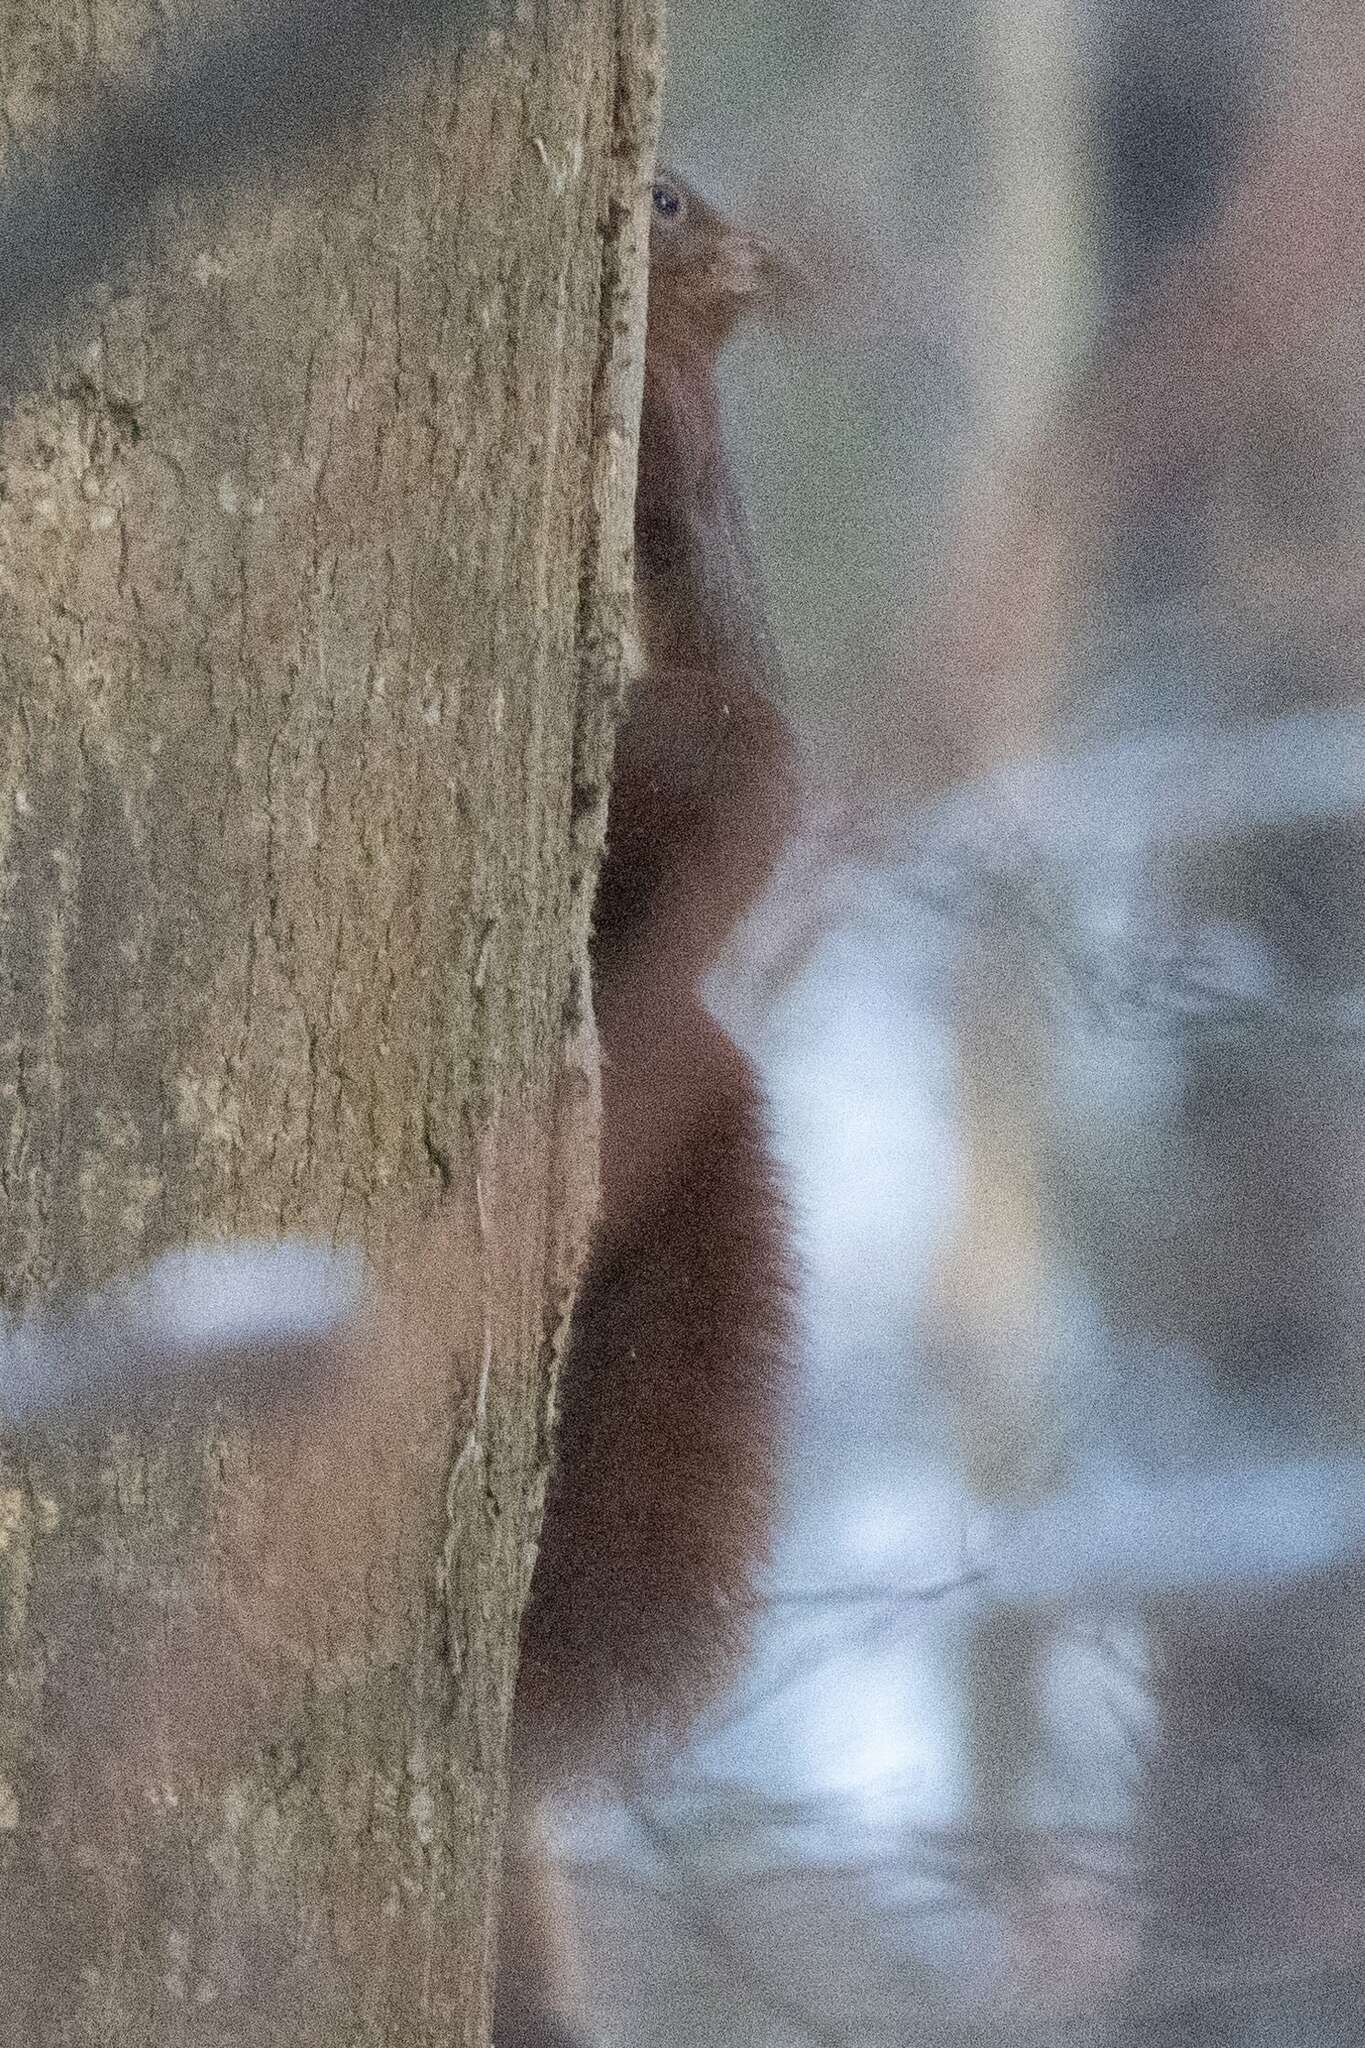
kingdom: Animalia
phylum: Chordata
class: Mammalia
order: Rodentia
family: Sciuridae
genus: Sciurus
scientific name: Sciurus vulgaris
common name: Eurasian red squirrel
